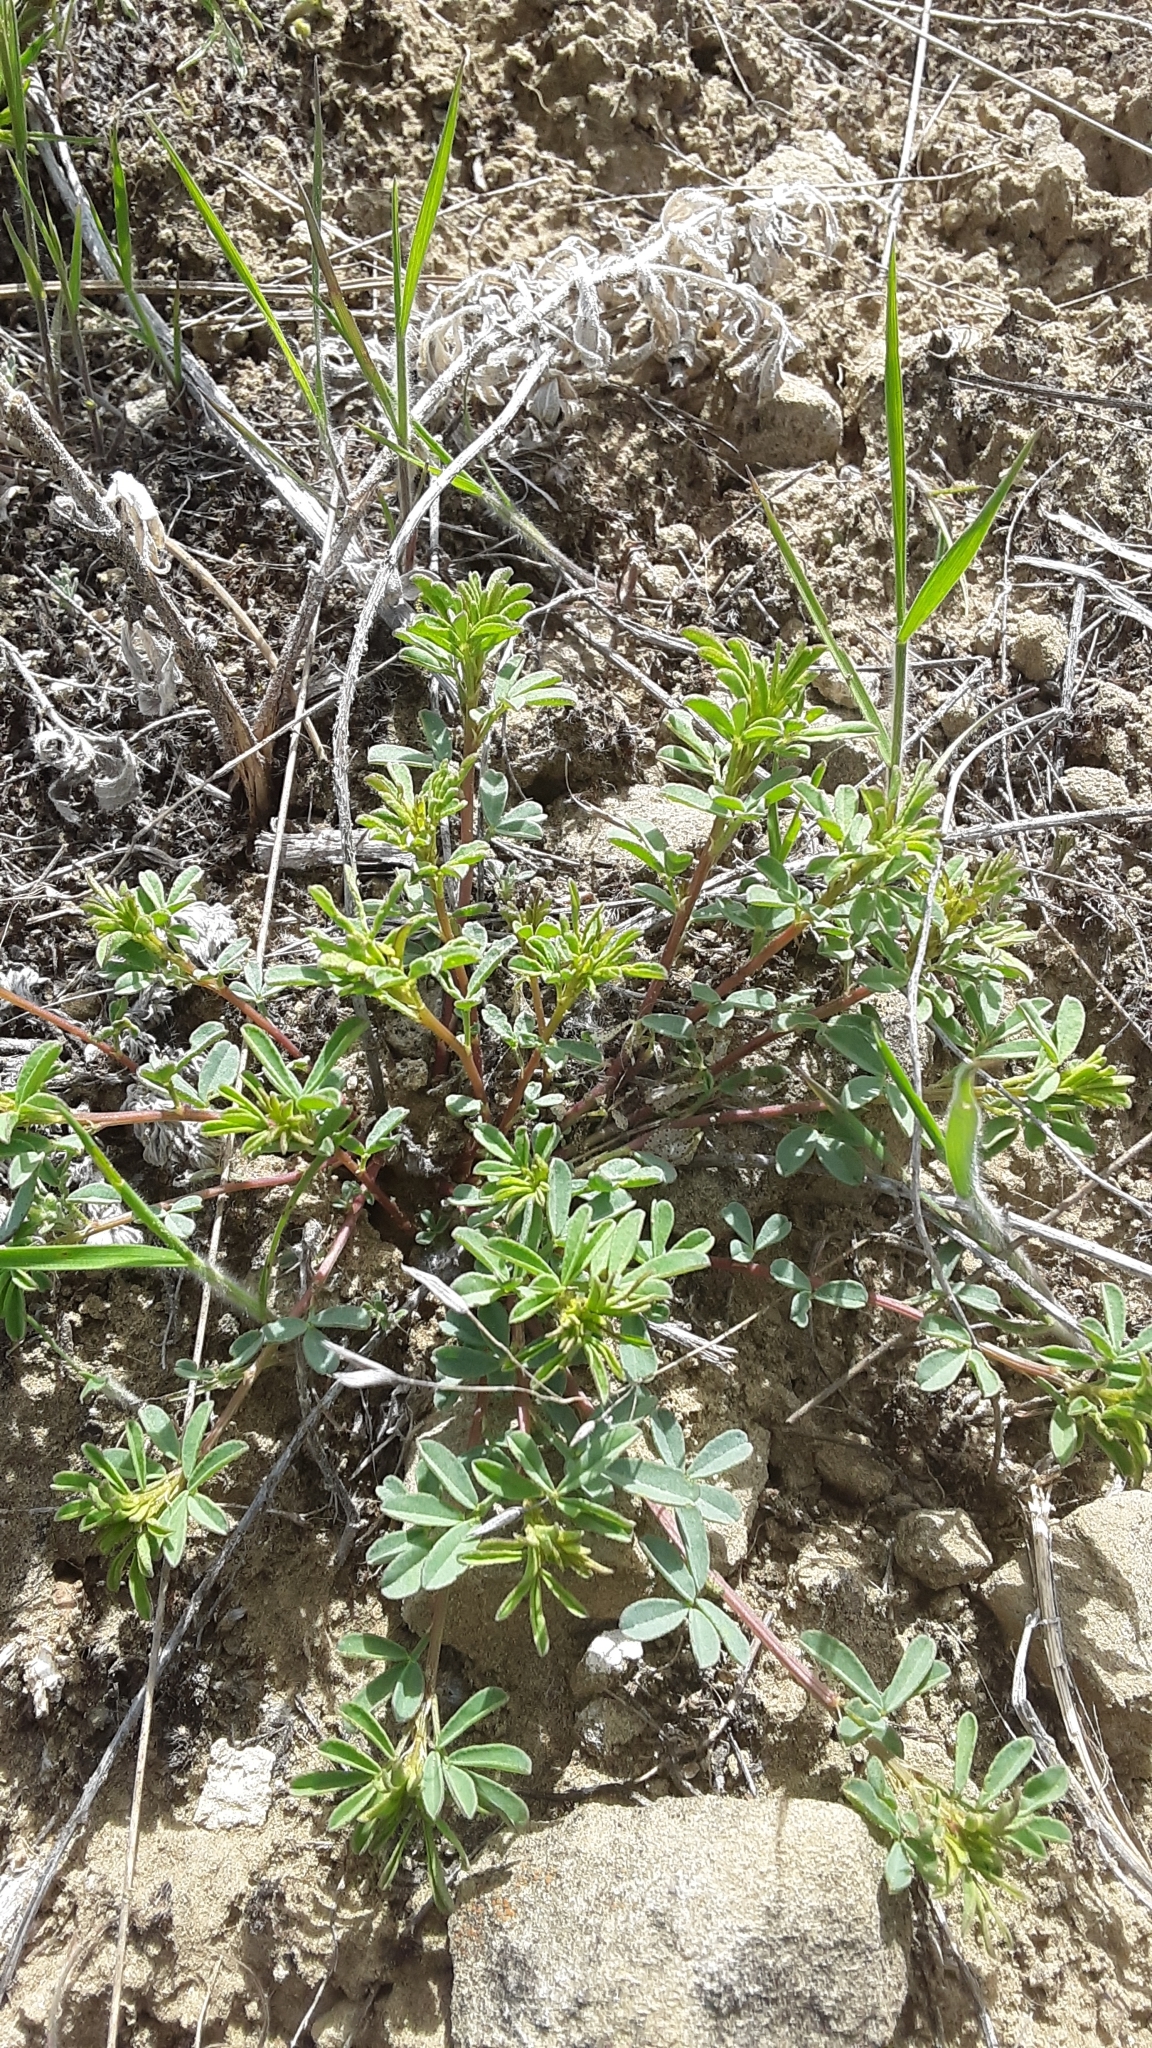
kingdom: Plantae
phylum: Tracheophyta
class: Magnoliopsida
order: Fabales
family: Fabaceae
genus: Dalea
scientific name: Dalea candida
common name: White prairie-clover
